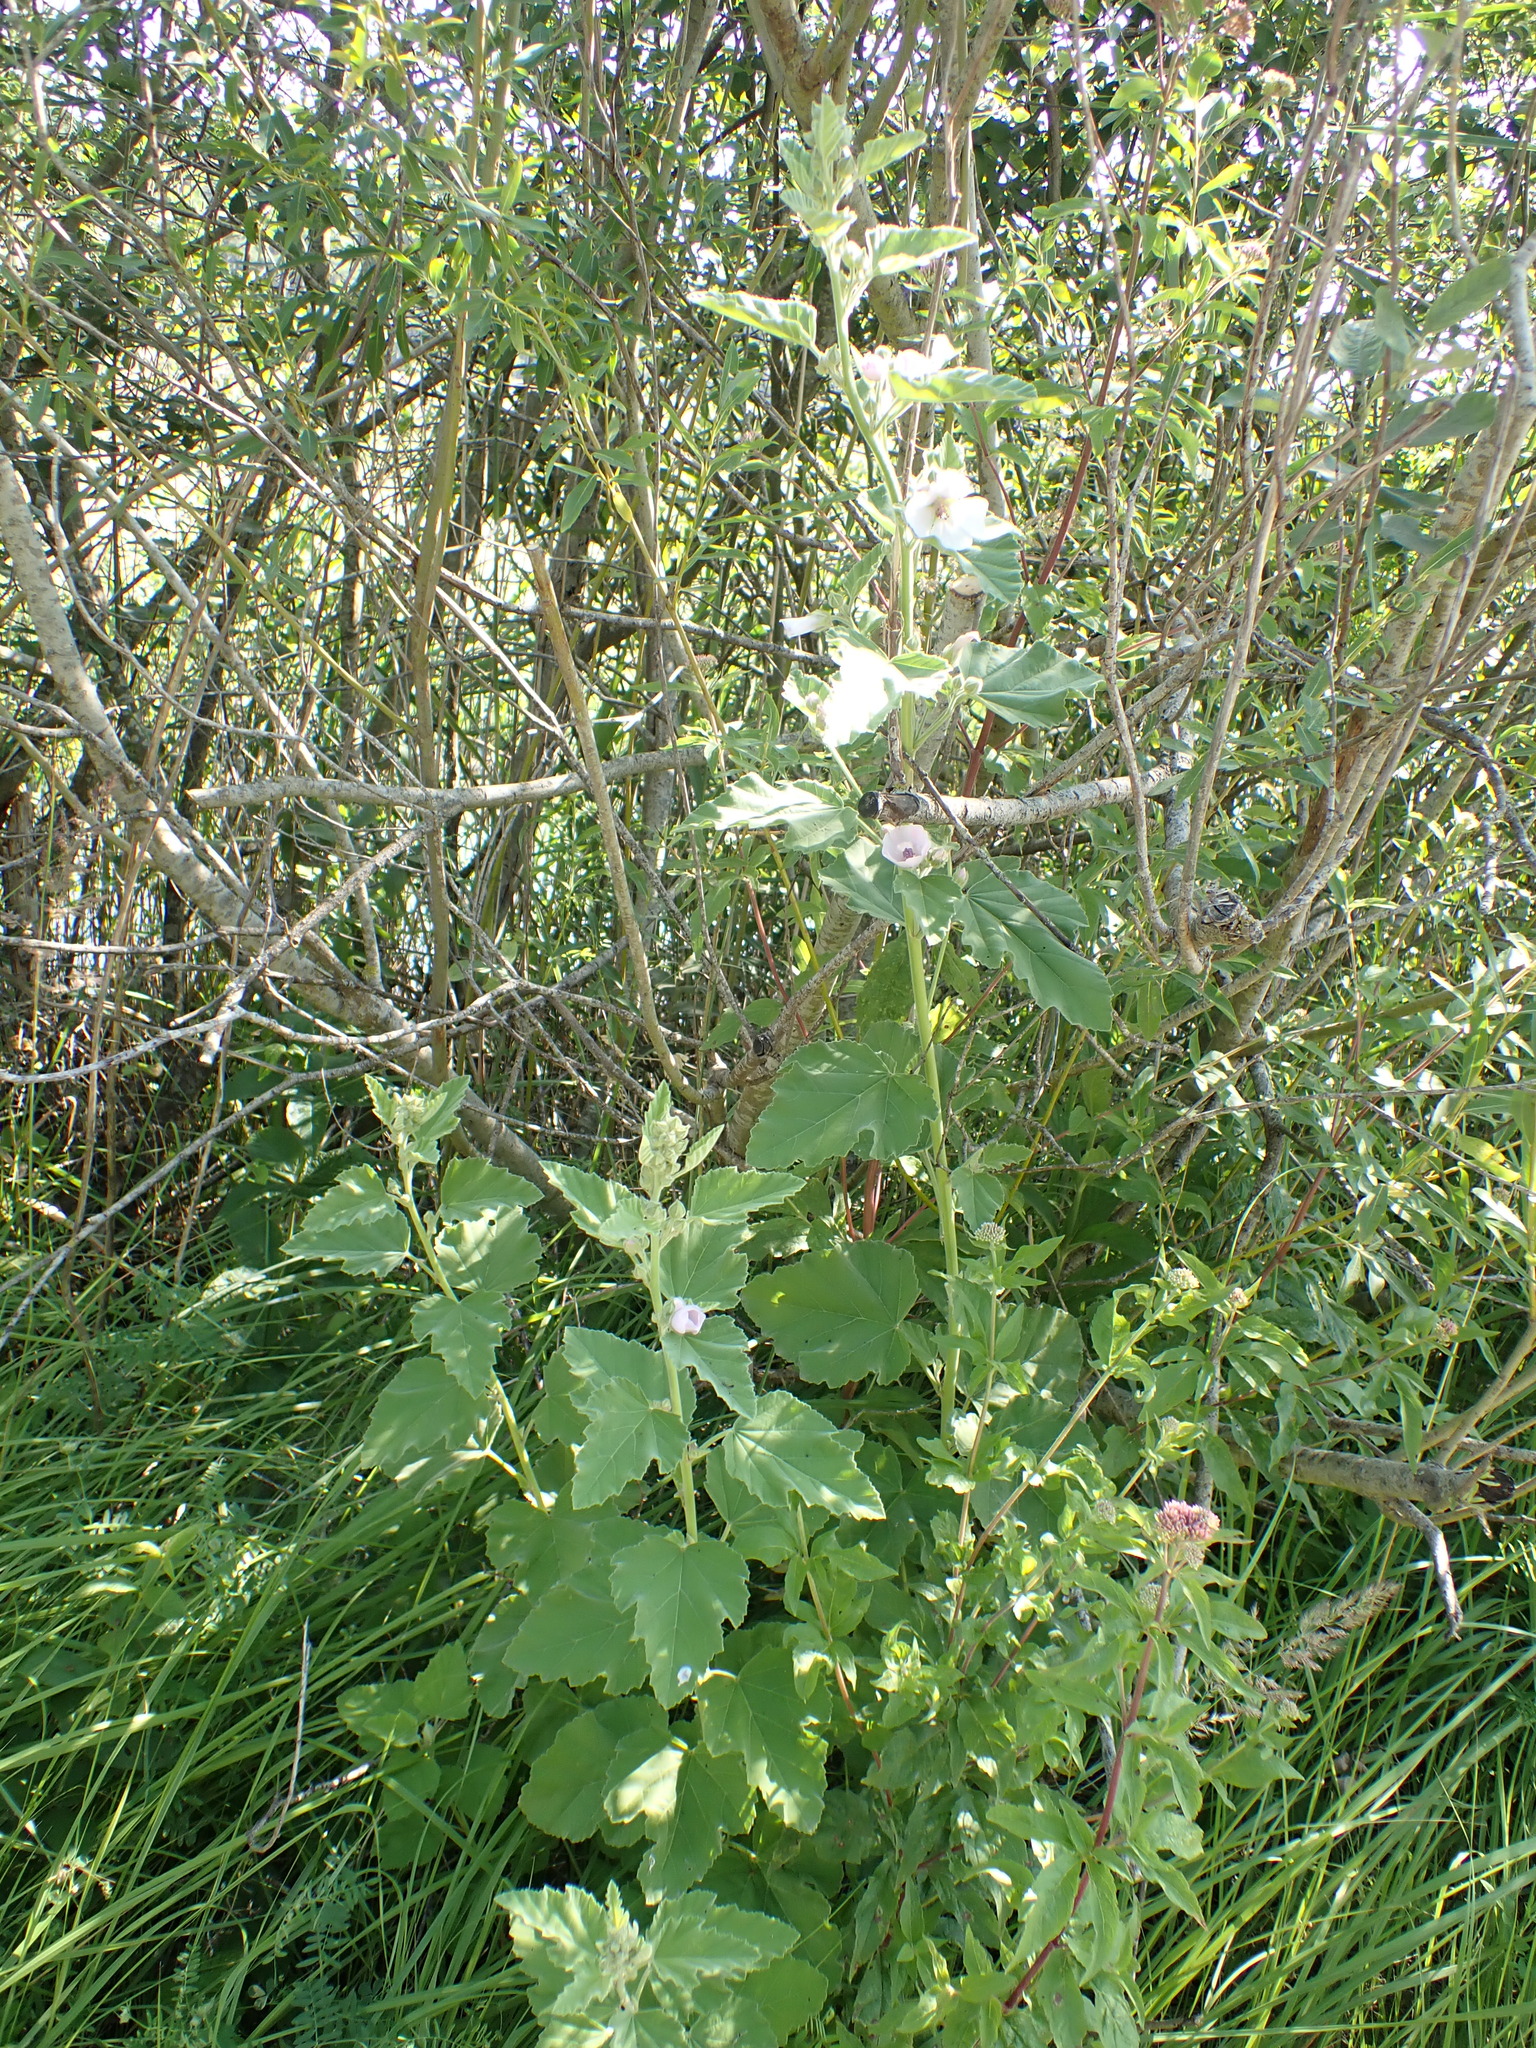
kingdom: Plantae
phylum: Tracheophyta
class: Magnoliopsida
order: Malvales
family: Malvaceae
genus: Althaea
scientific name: Althaea officinalis
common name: Marsh-mallow
